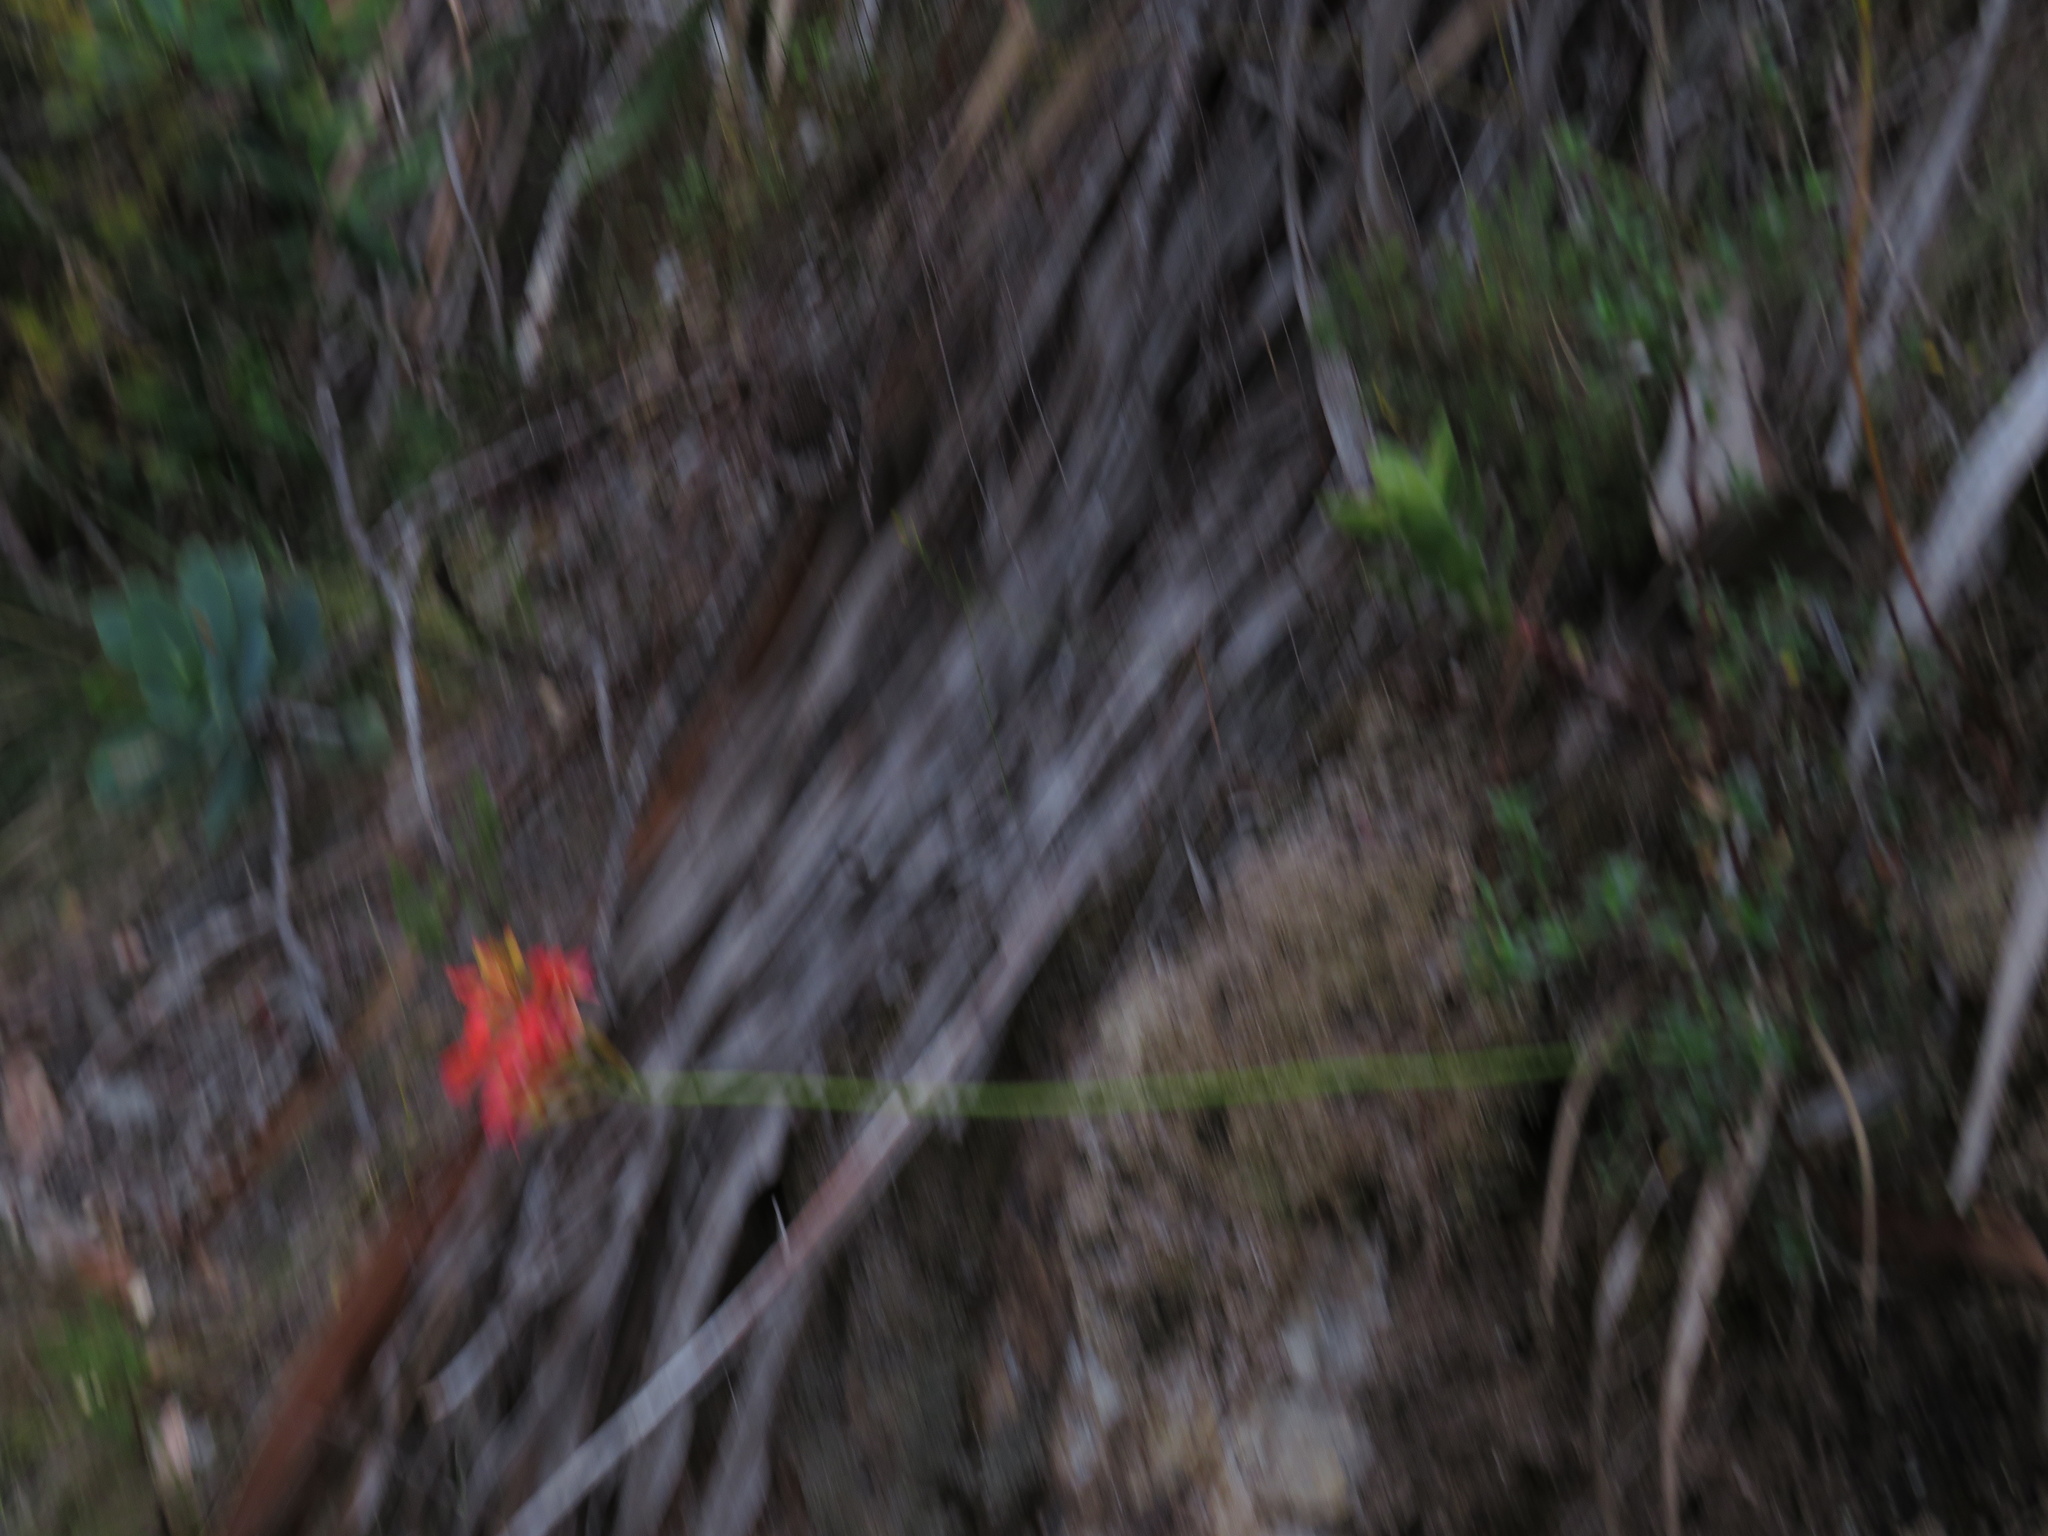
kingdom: Plantae
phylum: Tracheophyta
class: Liliopsida
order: Asparagales
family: Orchidaceae
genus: Disa
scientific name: Disa ferruginea
